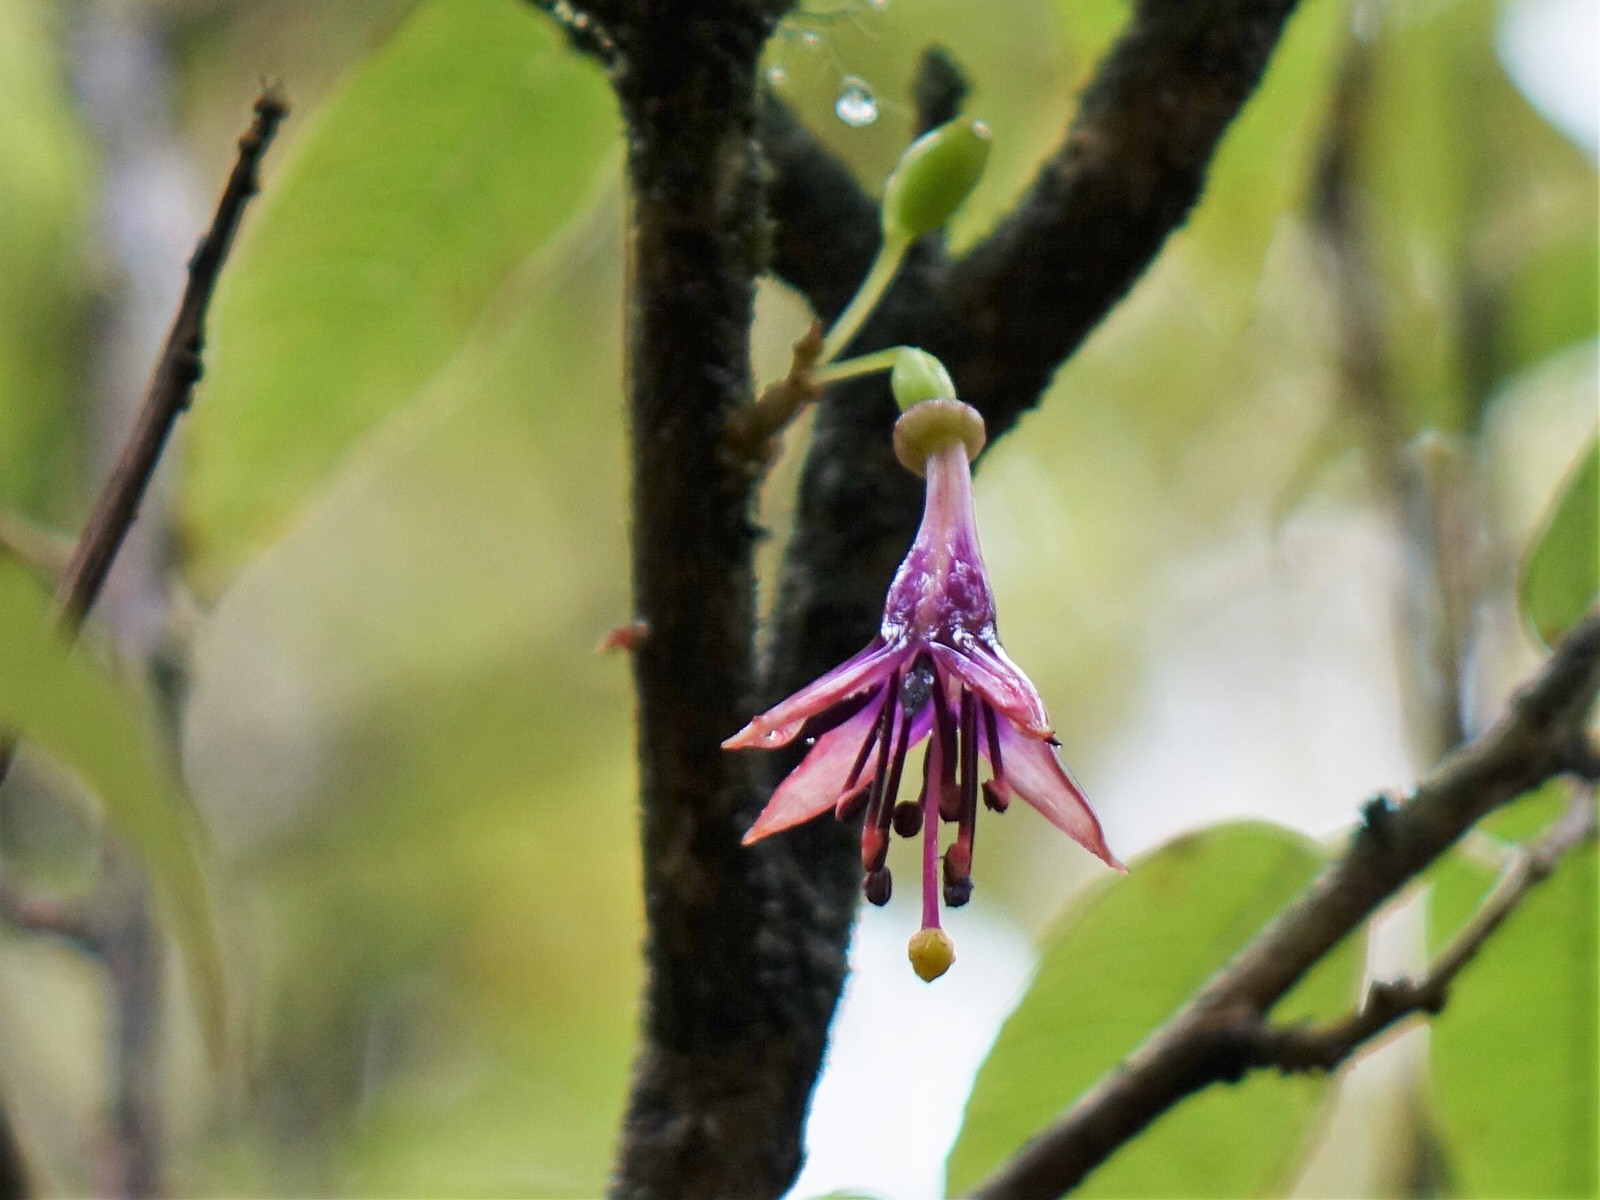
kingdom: Plantae
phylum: Tracheophyta
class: Magnoliopsida
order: Myrtales
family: Onagraceae
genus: Fuchsia
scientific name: Fuchsia excorticata
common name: Tree fuchsia
